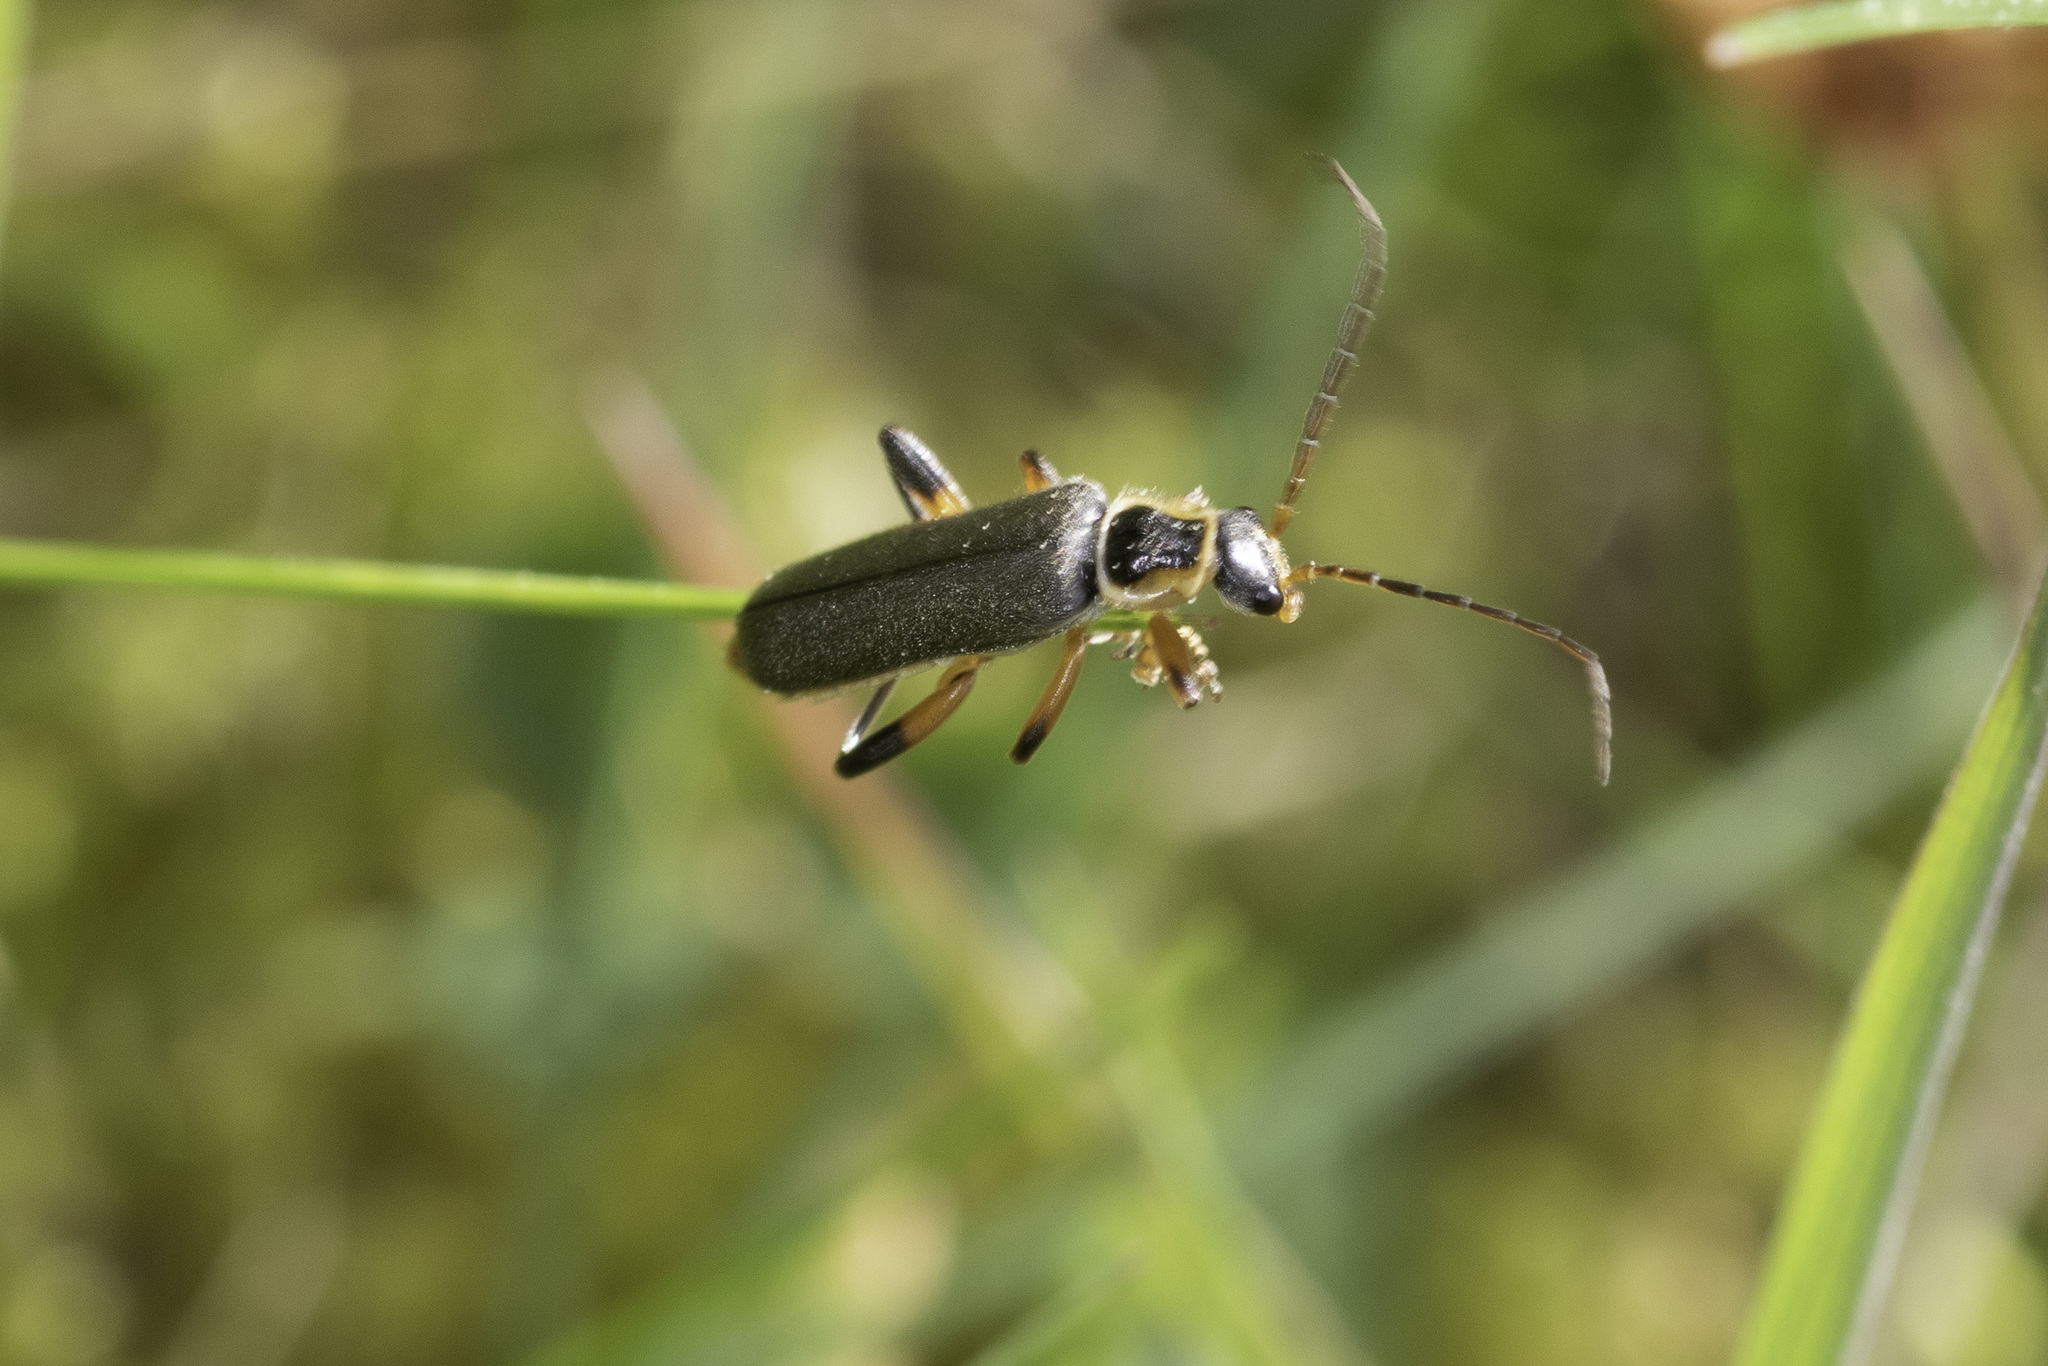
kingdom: Animalia
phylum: Arthropoda
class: Insecta
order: Coleoptera
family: Cantharidae
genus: Cantharis
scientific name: Cantharis nigricans
